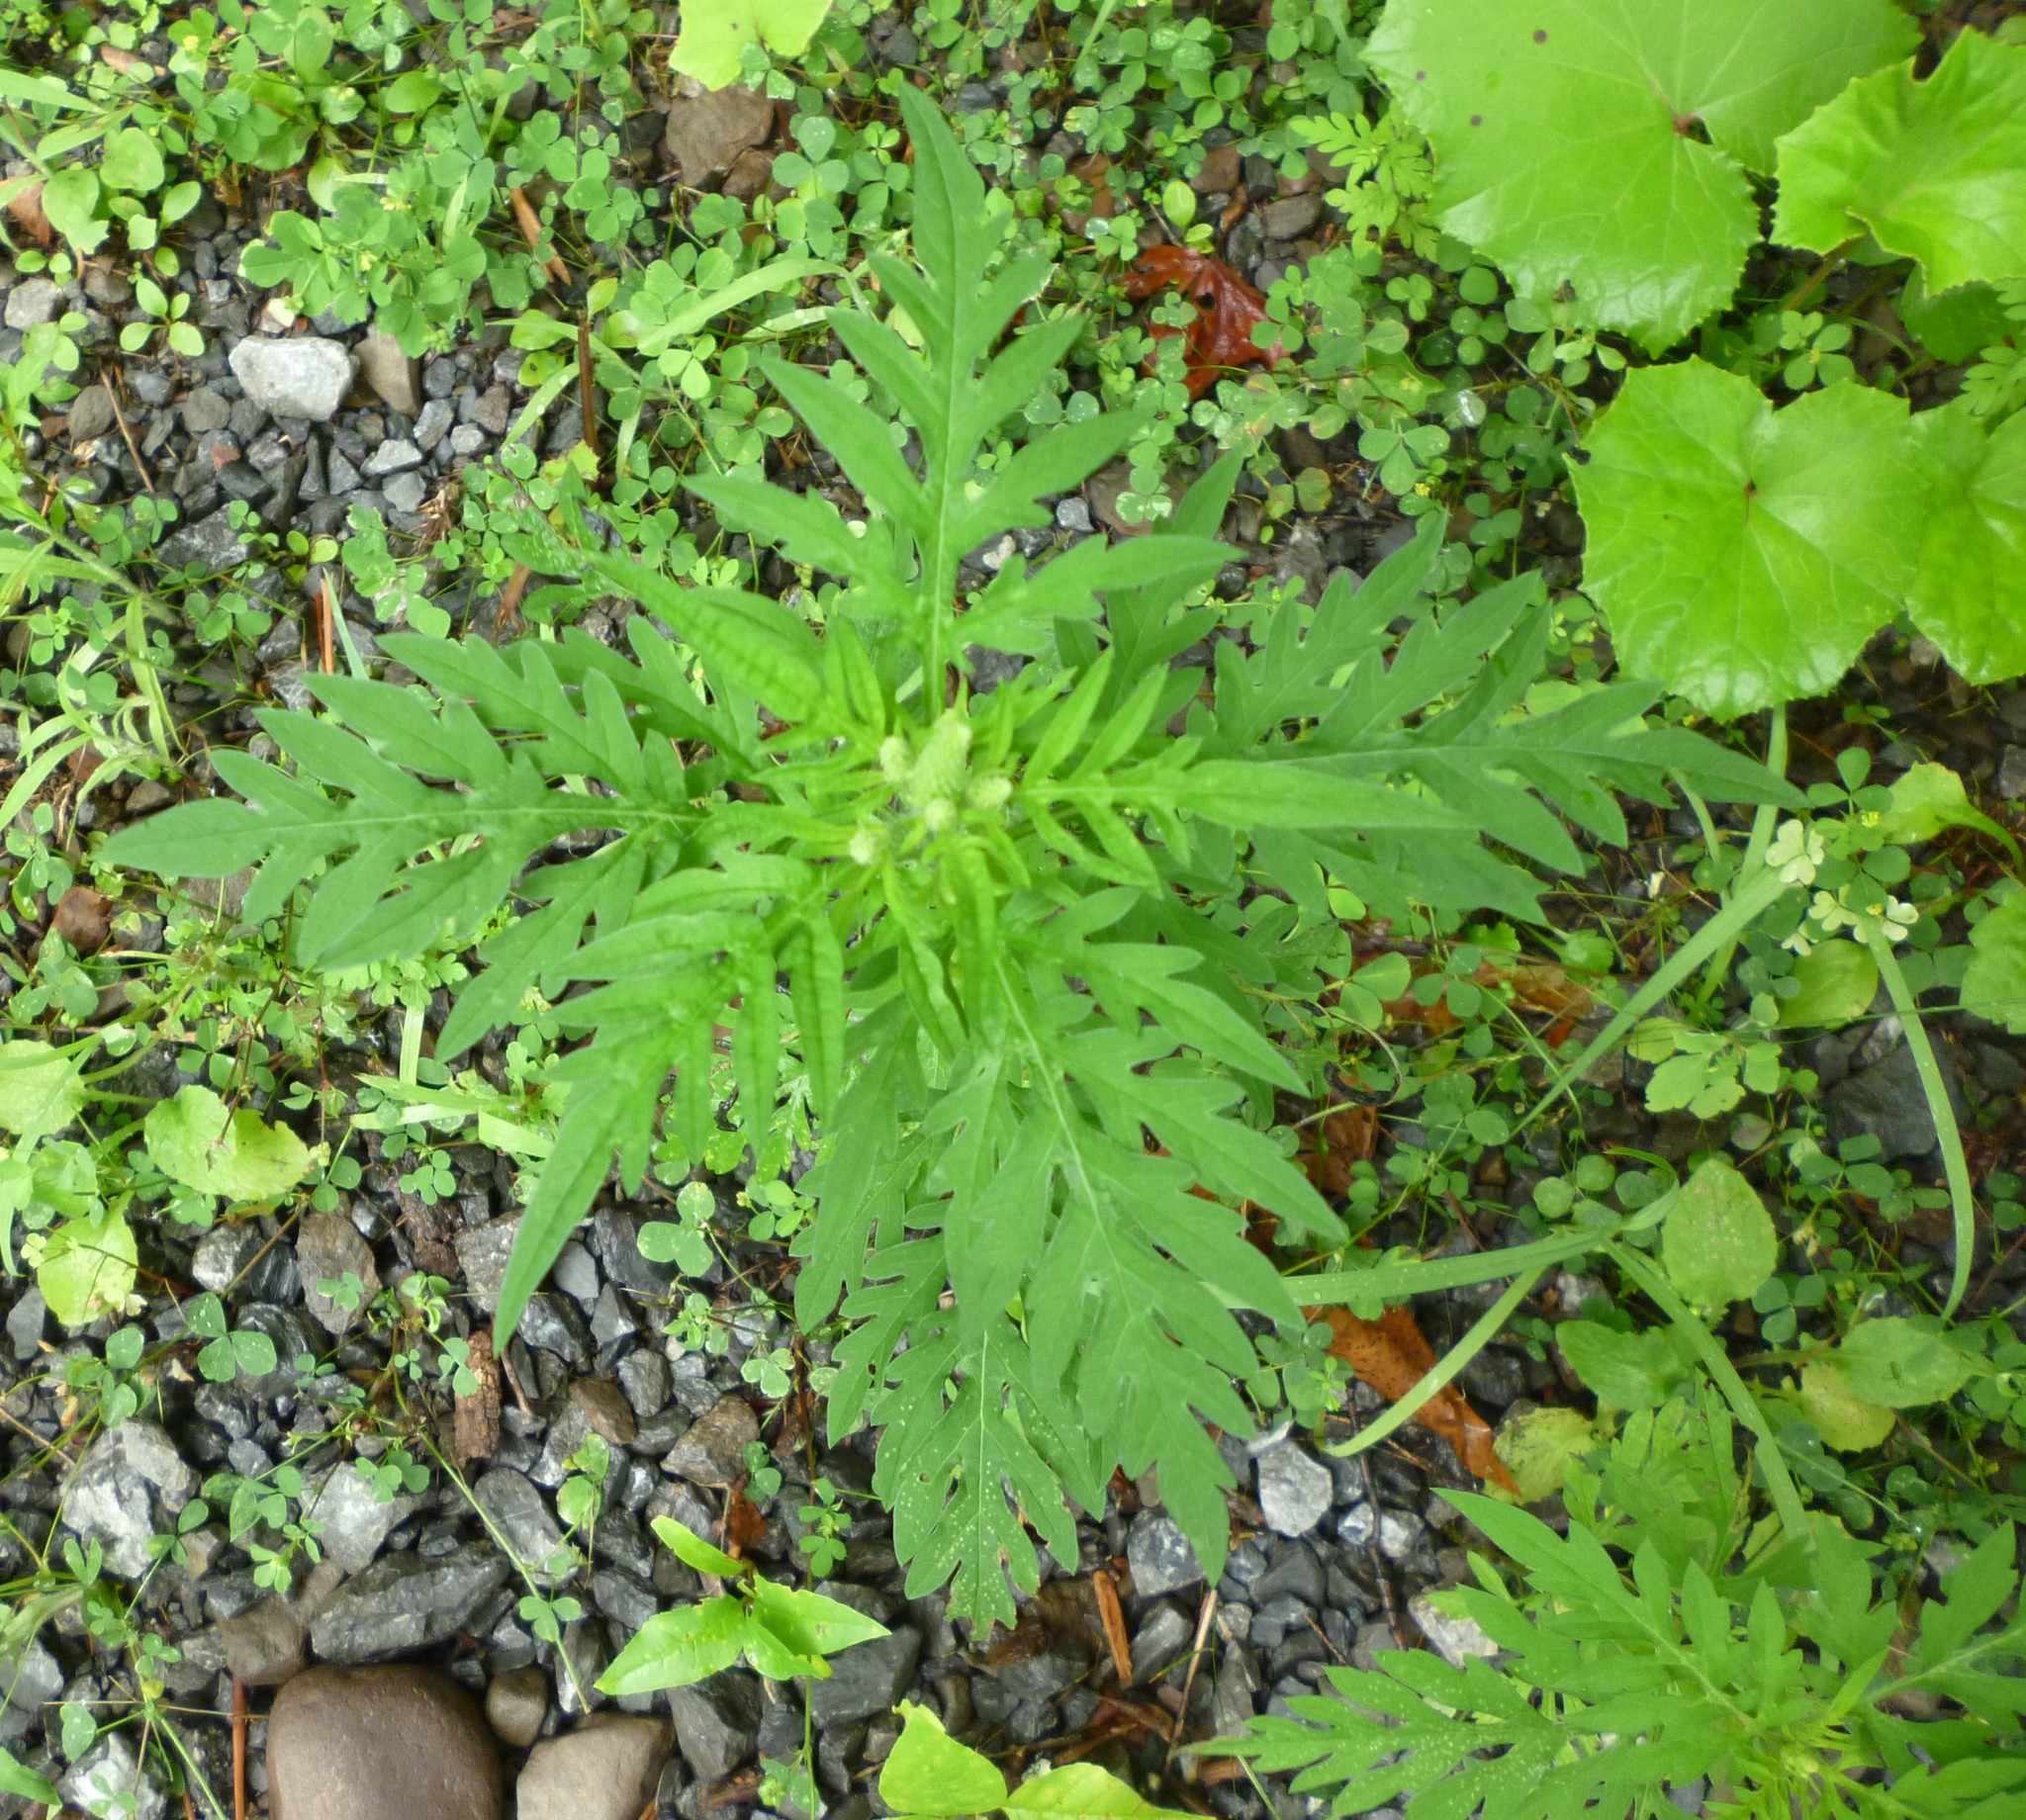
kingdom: Plantae
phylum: Tracheophyta
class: Magnoliopsida
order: Asterales
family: Asteraceae
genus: Ambrosia
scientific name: Ambrosia artemisiifolia
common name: Annual ragweed
